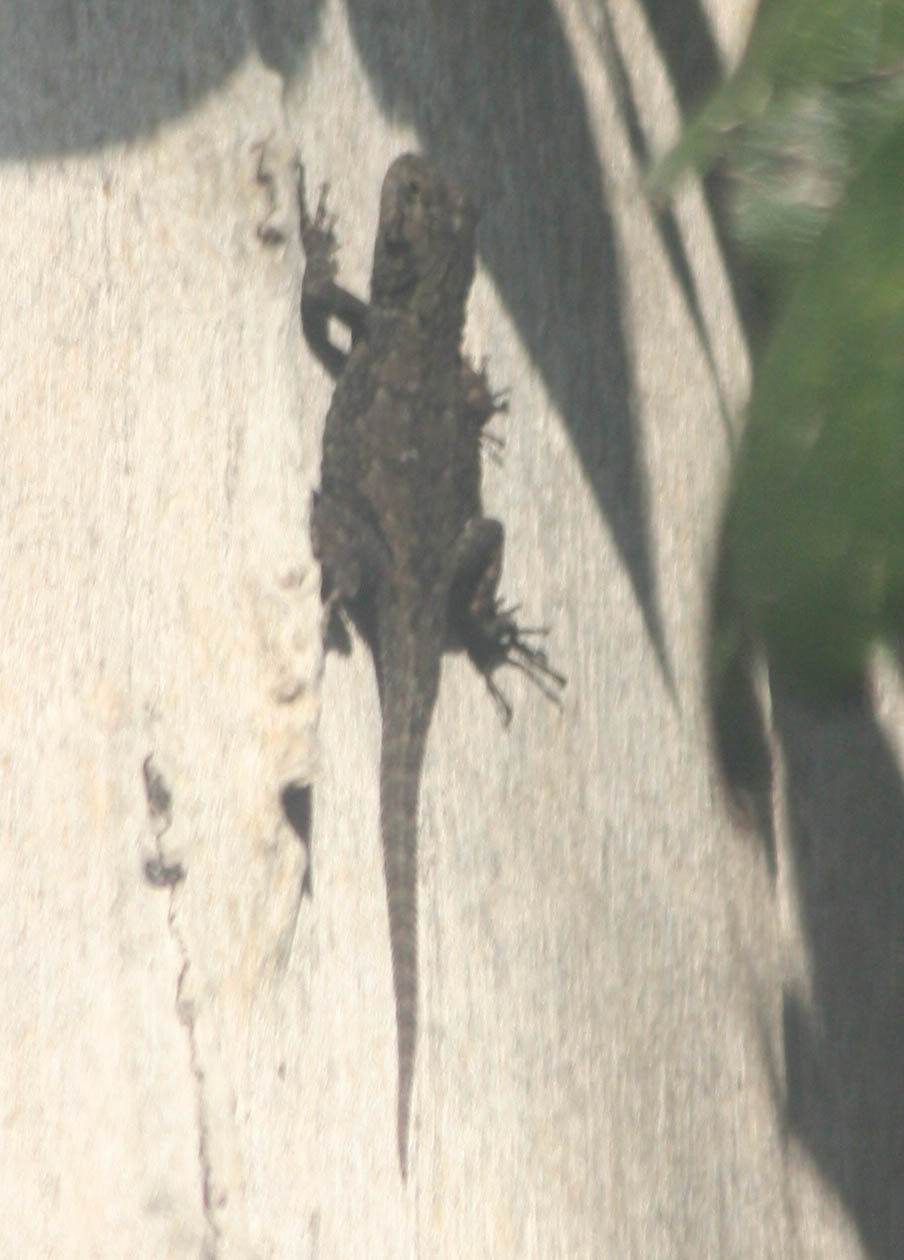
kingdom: Animalia
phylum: Chordata
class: Squamata
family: Phrynosomatidae
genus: Sceloporus
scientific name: Sceloporus grammicus
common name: Mesquite lizard
